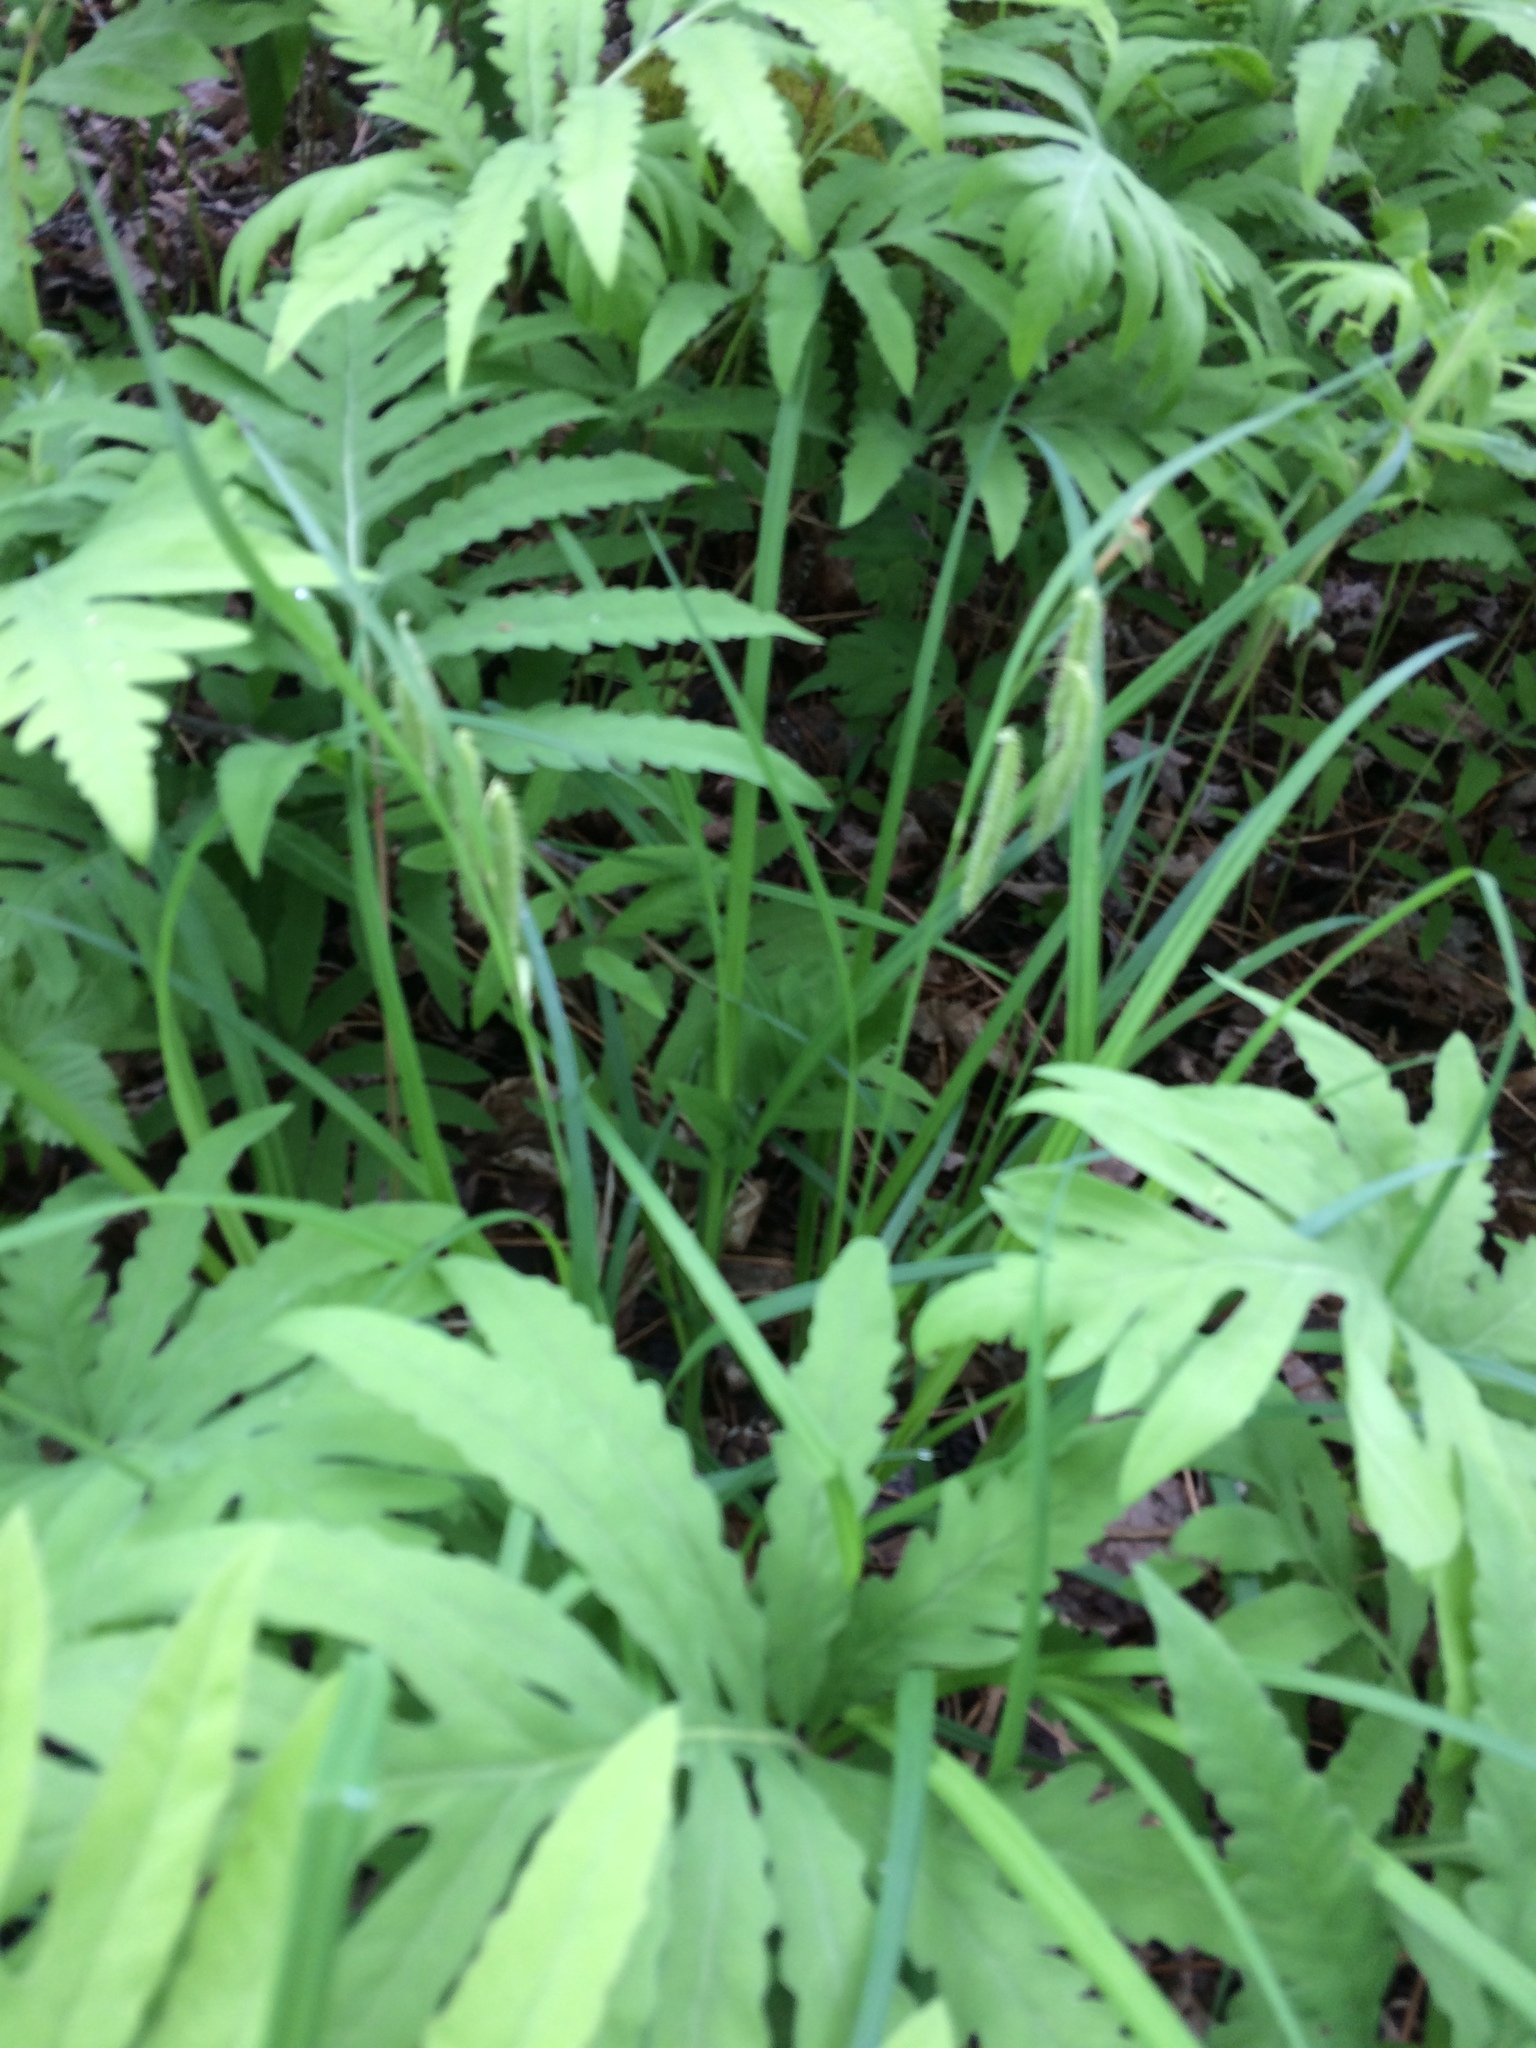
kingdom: Plantae
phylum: Tracheophyta
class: Liliopsida
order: Poales
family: Cyperaceae
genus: Carex
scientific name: Carex gynandra
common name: Nodding sedge
